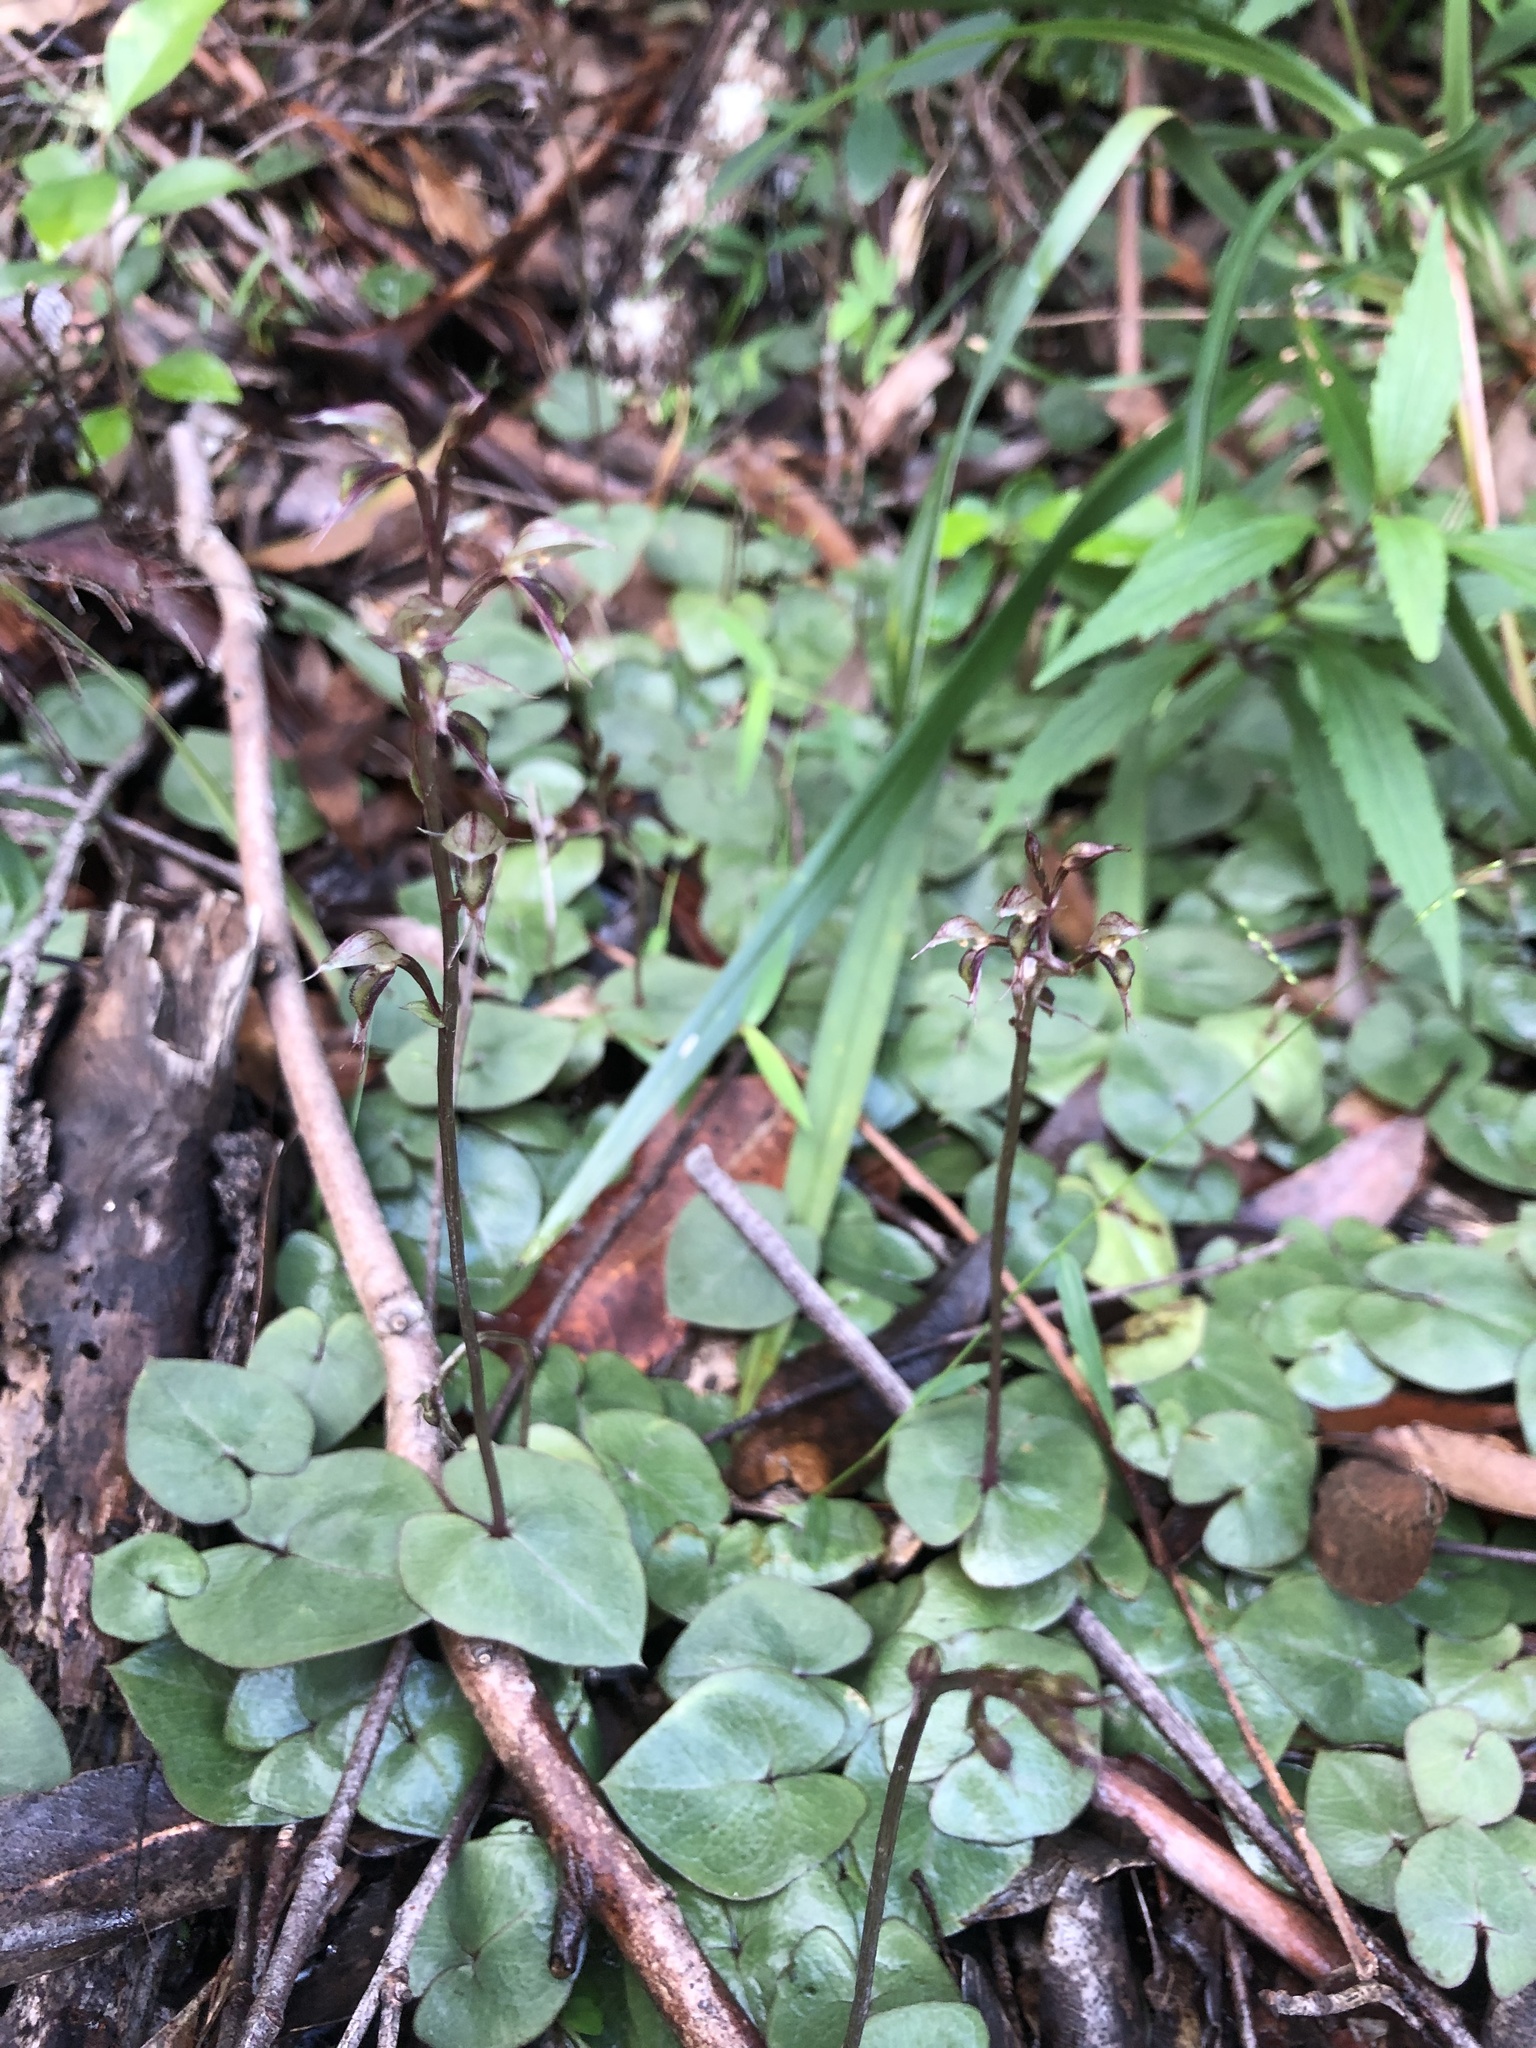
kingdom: Plantae
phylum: Tracheophyta
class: Liliopsida
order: Asparagales
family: Orchidaceae
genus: Acianthus
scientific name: Acianthus fornicatus
